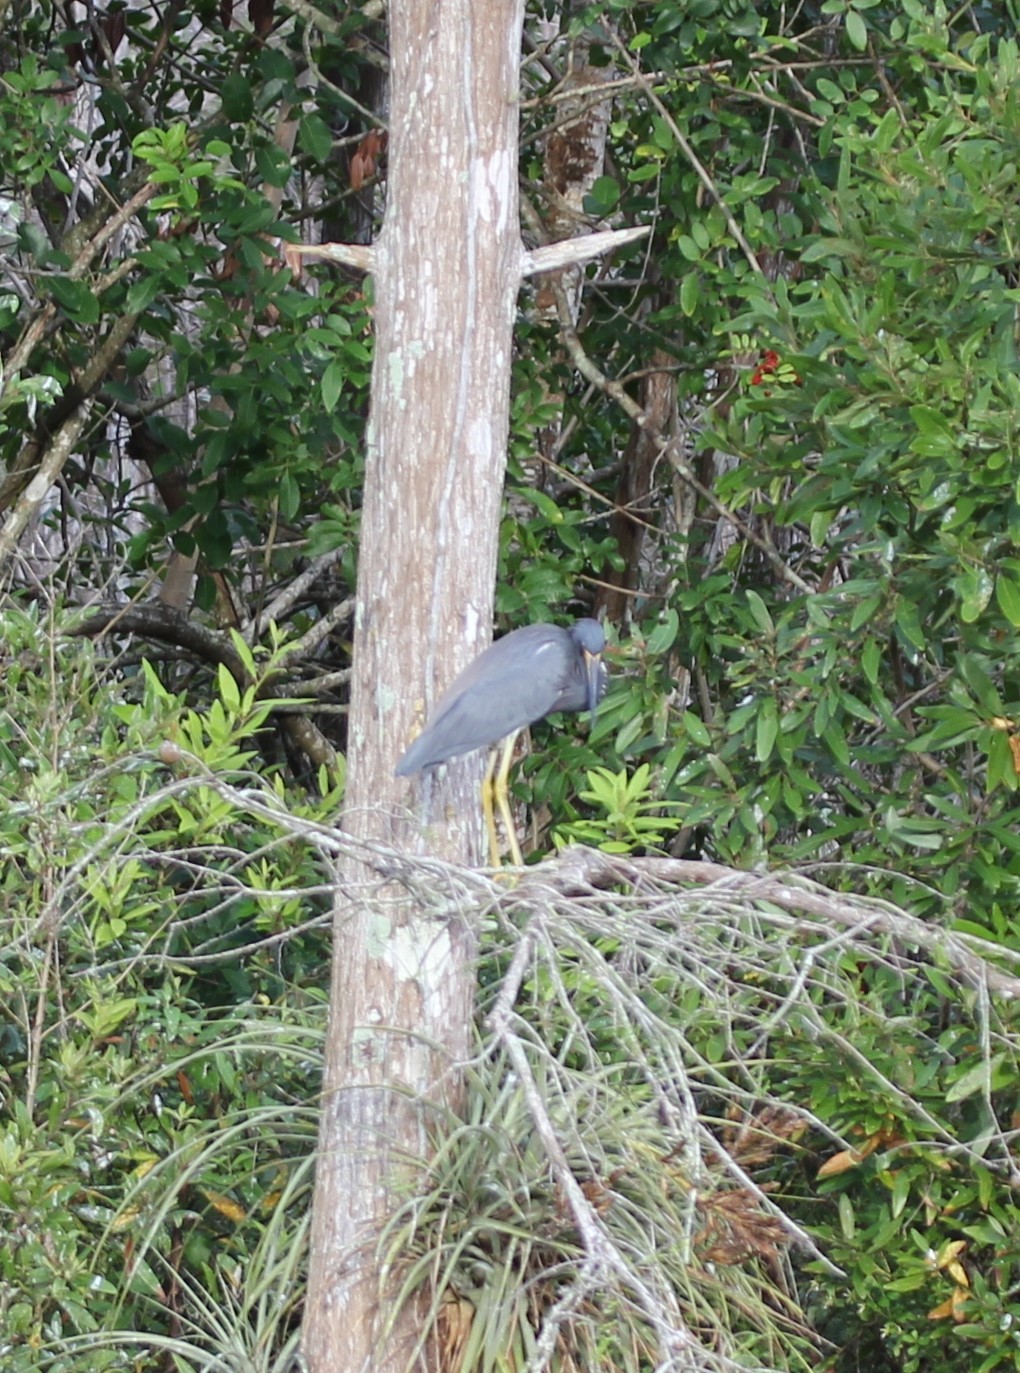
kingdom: Animalia
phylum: Chordata
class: Aves
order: Pelecaniformes
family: Ardeidae
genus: Egretta
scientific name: Egretta tricolor
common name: Tricolored heron
